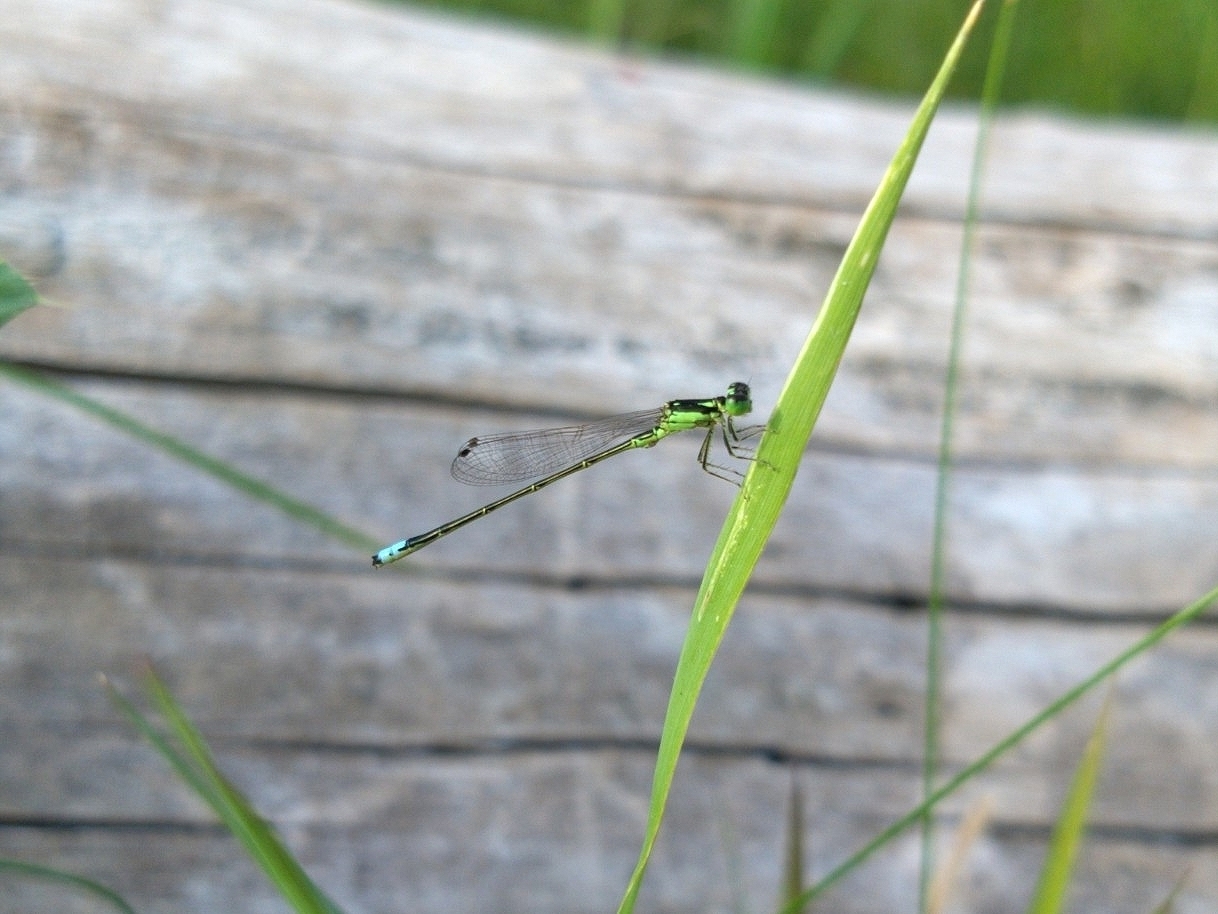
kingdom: Animalia
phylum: Arthropoda
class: Insecta
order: Odonata
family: Coenagrionidae
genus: Ischnura
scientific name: Ischnura verticalis
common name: Eastern forktail
